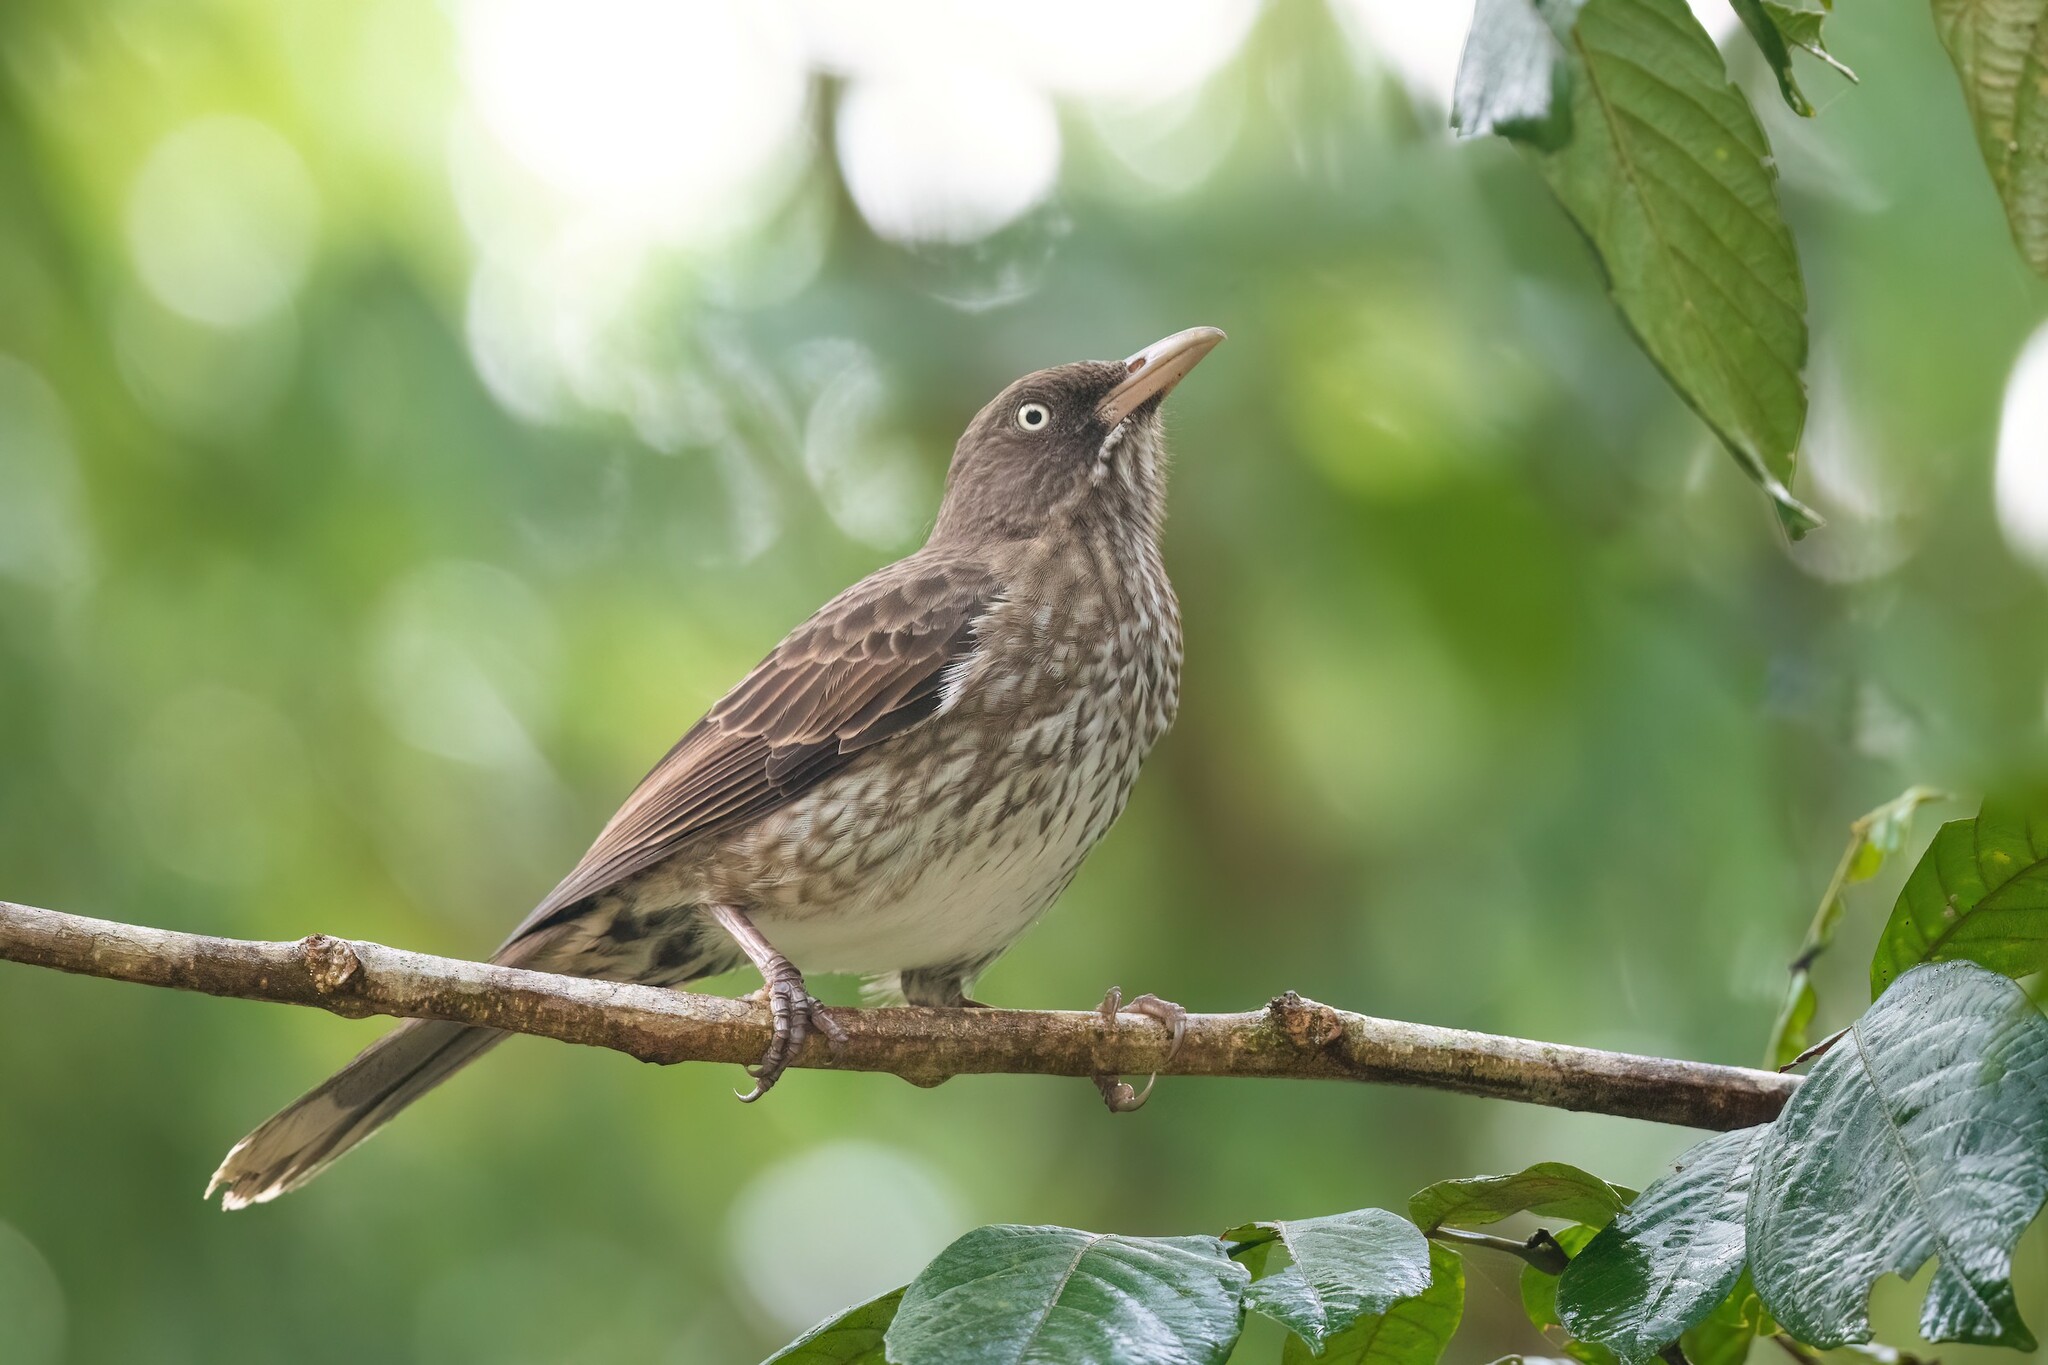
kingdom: Animalia
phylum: Chordata
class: Aves
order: Passeriformes
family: Mimidae
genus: Margarops
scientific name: Margarops fuscatus
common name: Pearly-eyed thrasher
